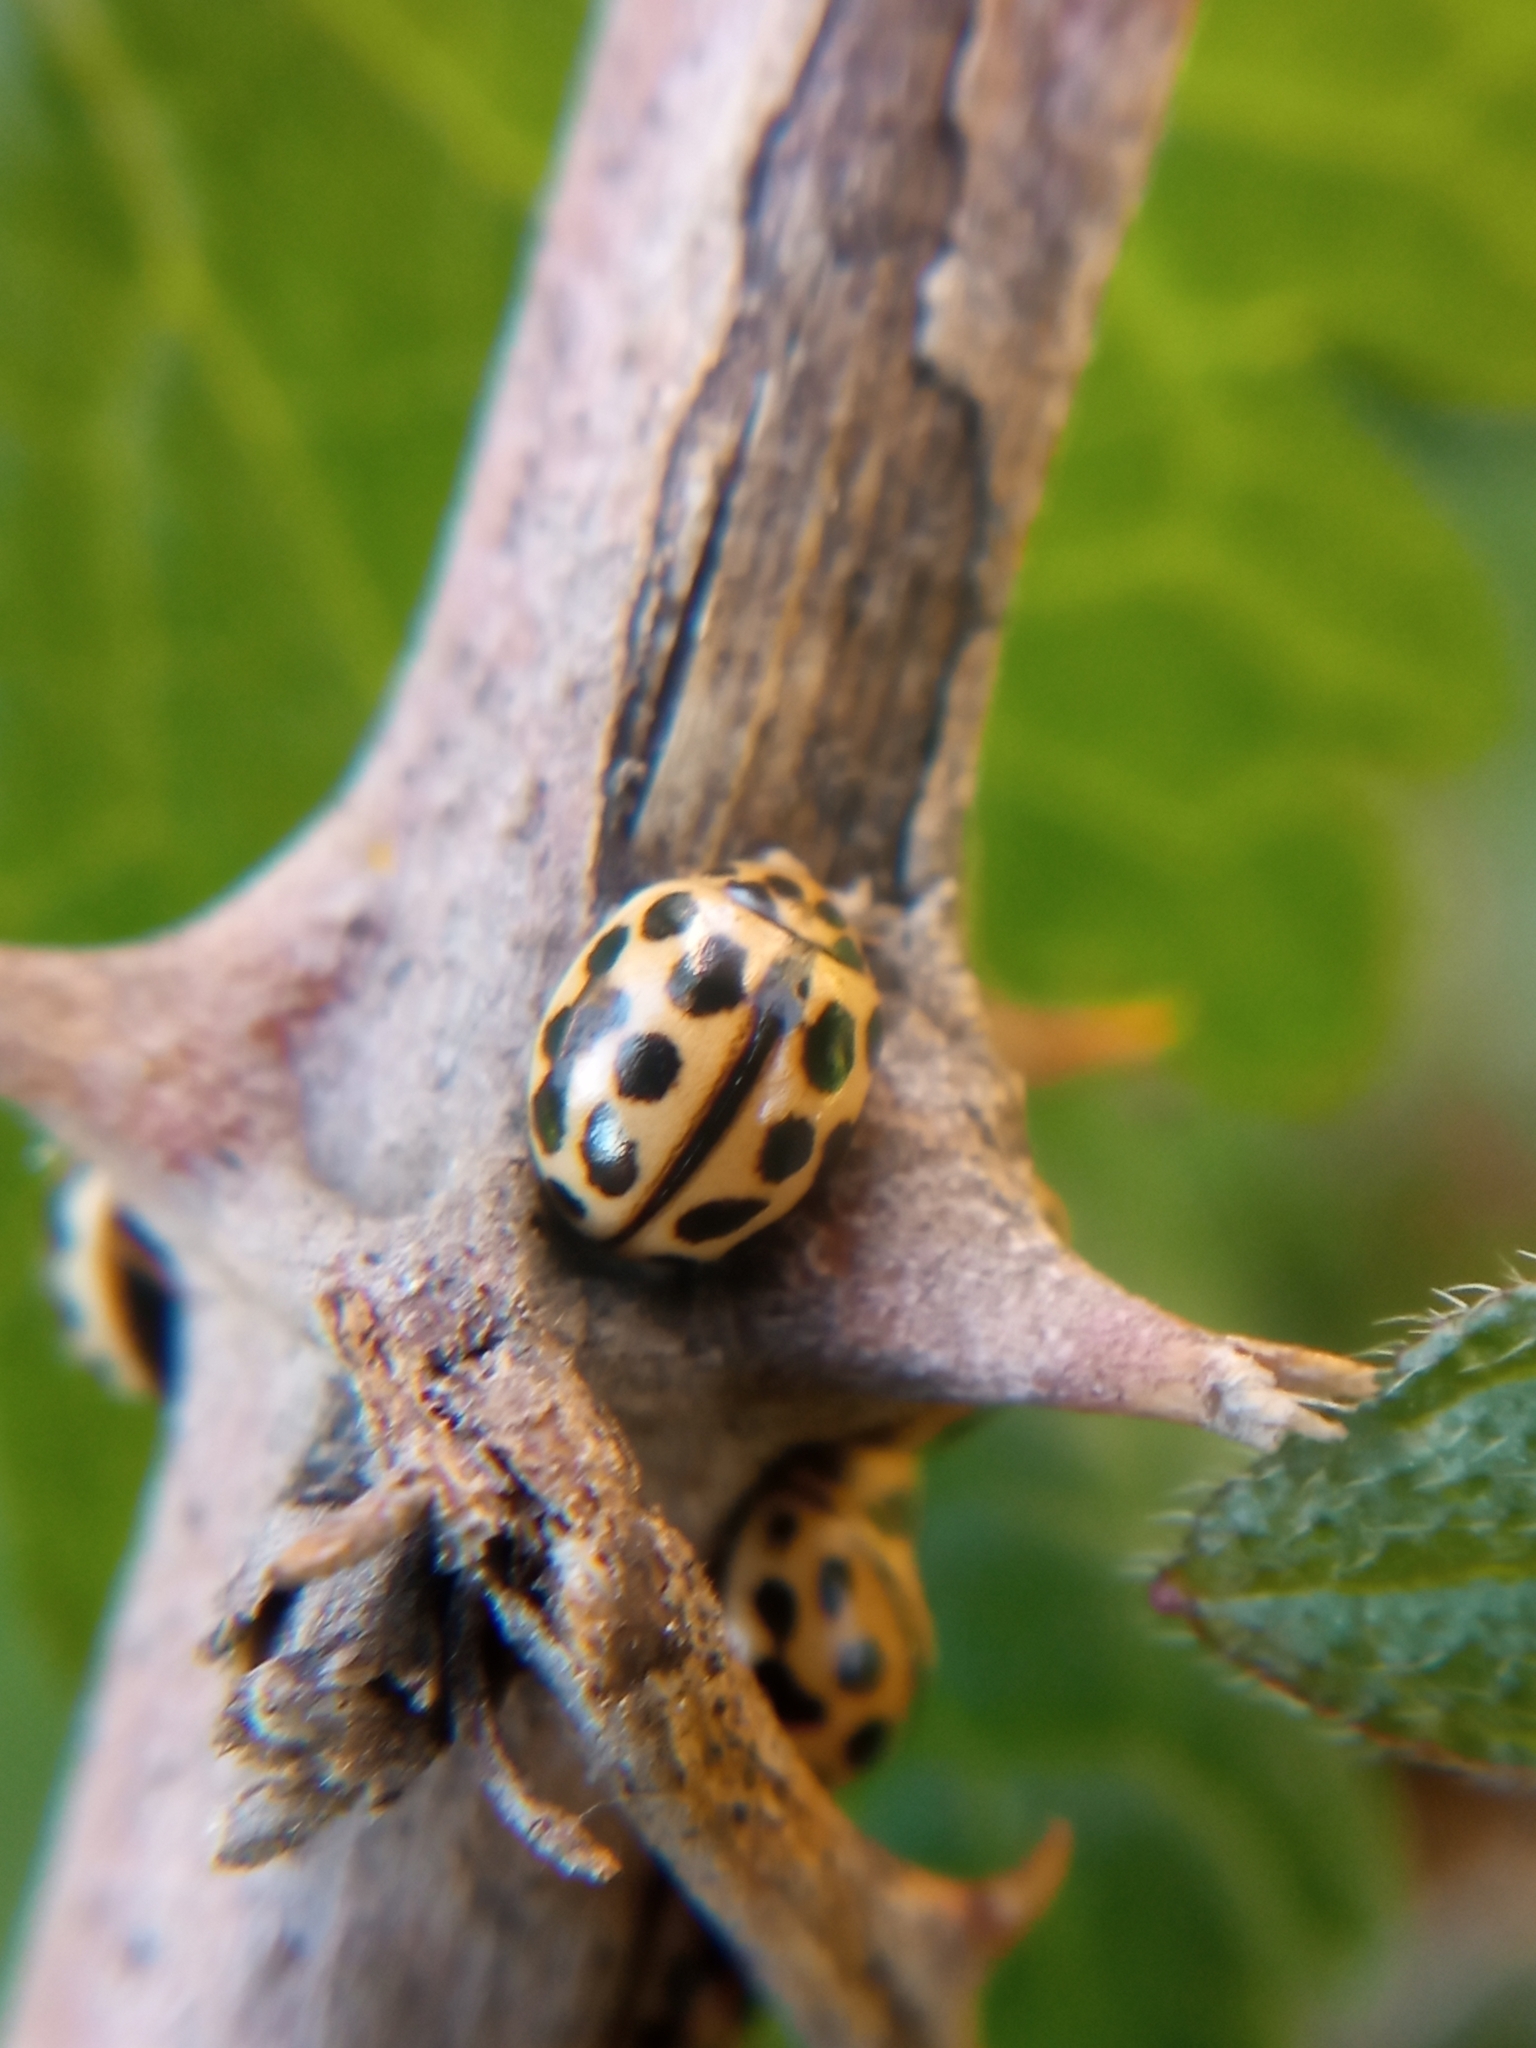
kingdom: Animalia
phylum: Arthropoda
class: Insecta
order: Coleoptera
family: Coccinellidae
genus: Tytthaspis
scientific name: Tytthaspis sedecimpunctata
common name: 16-spot ladybird
